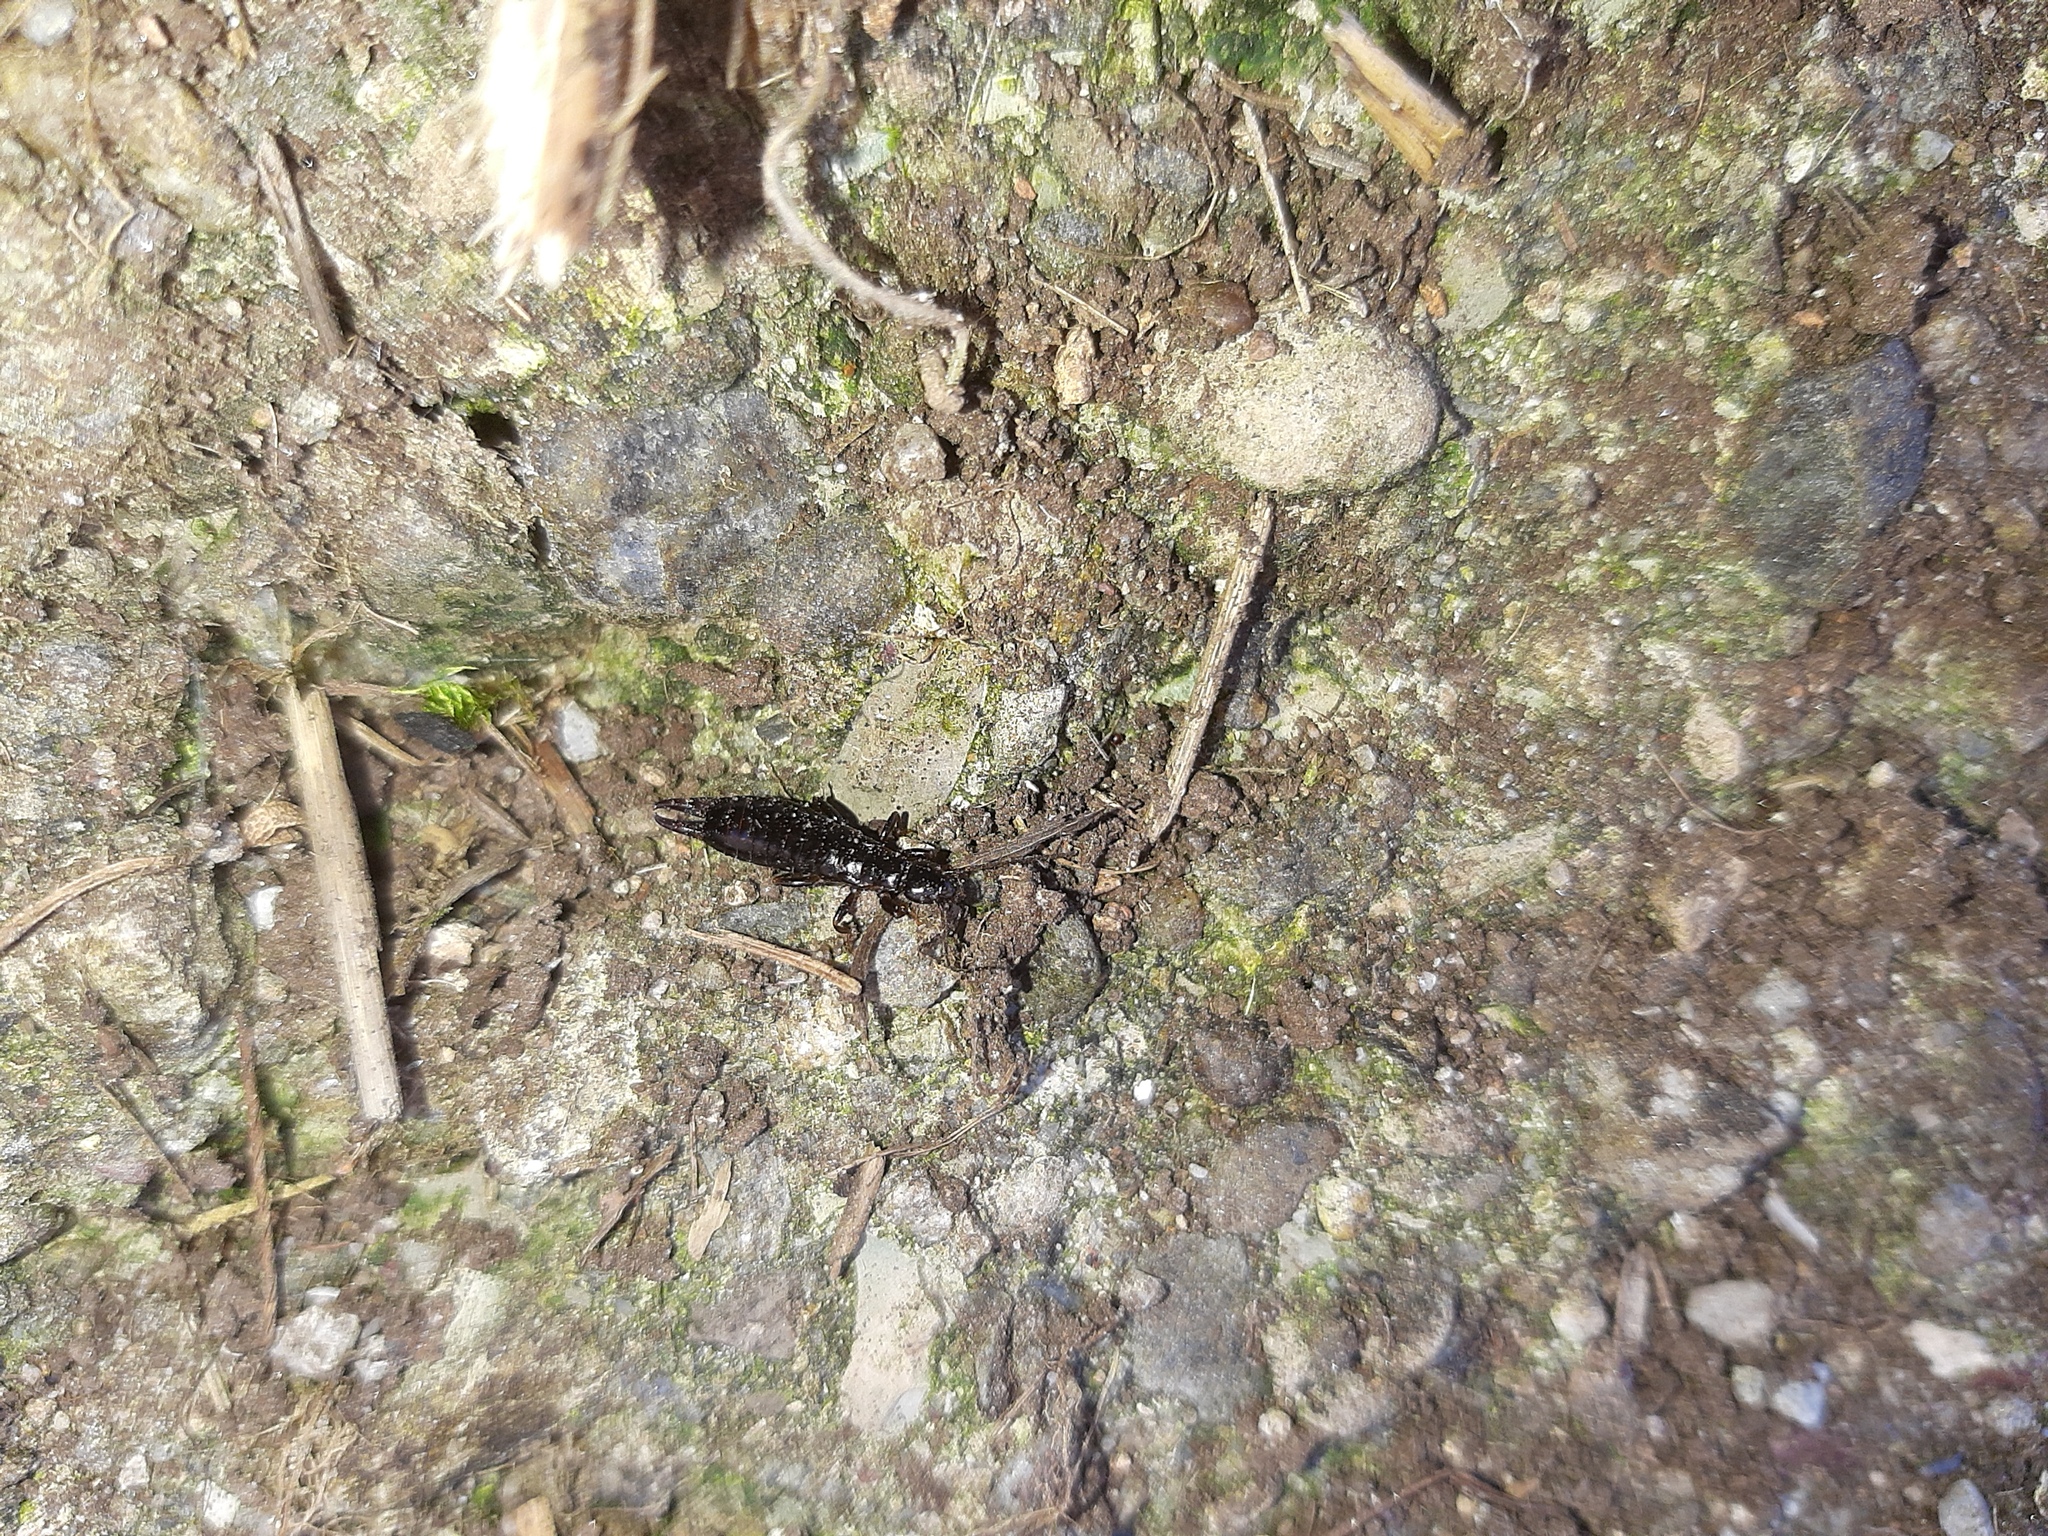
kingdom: Animalia
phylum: Arthropoda
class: Insecta
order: Dermaptera
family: Anisolabididae
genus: Euborellia
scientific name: Euborellia moesta
